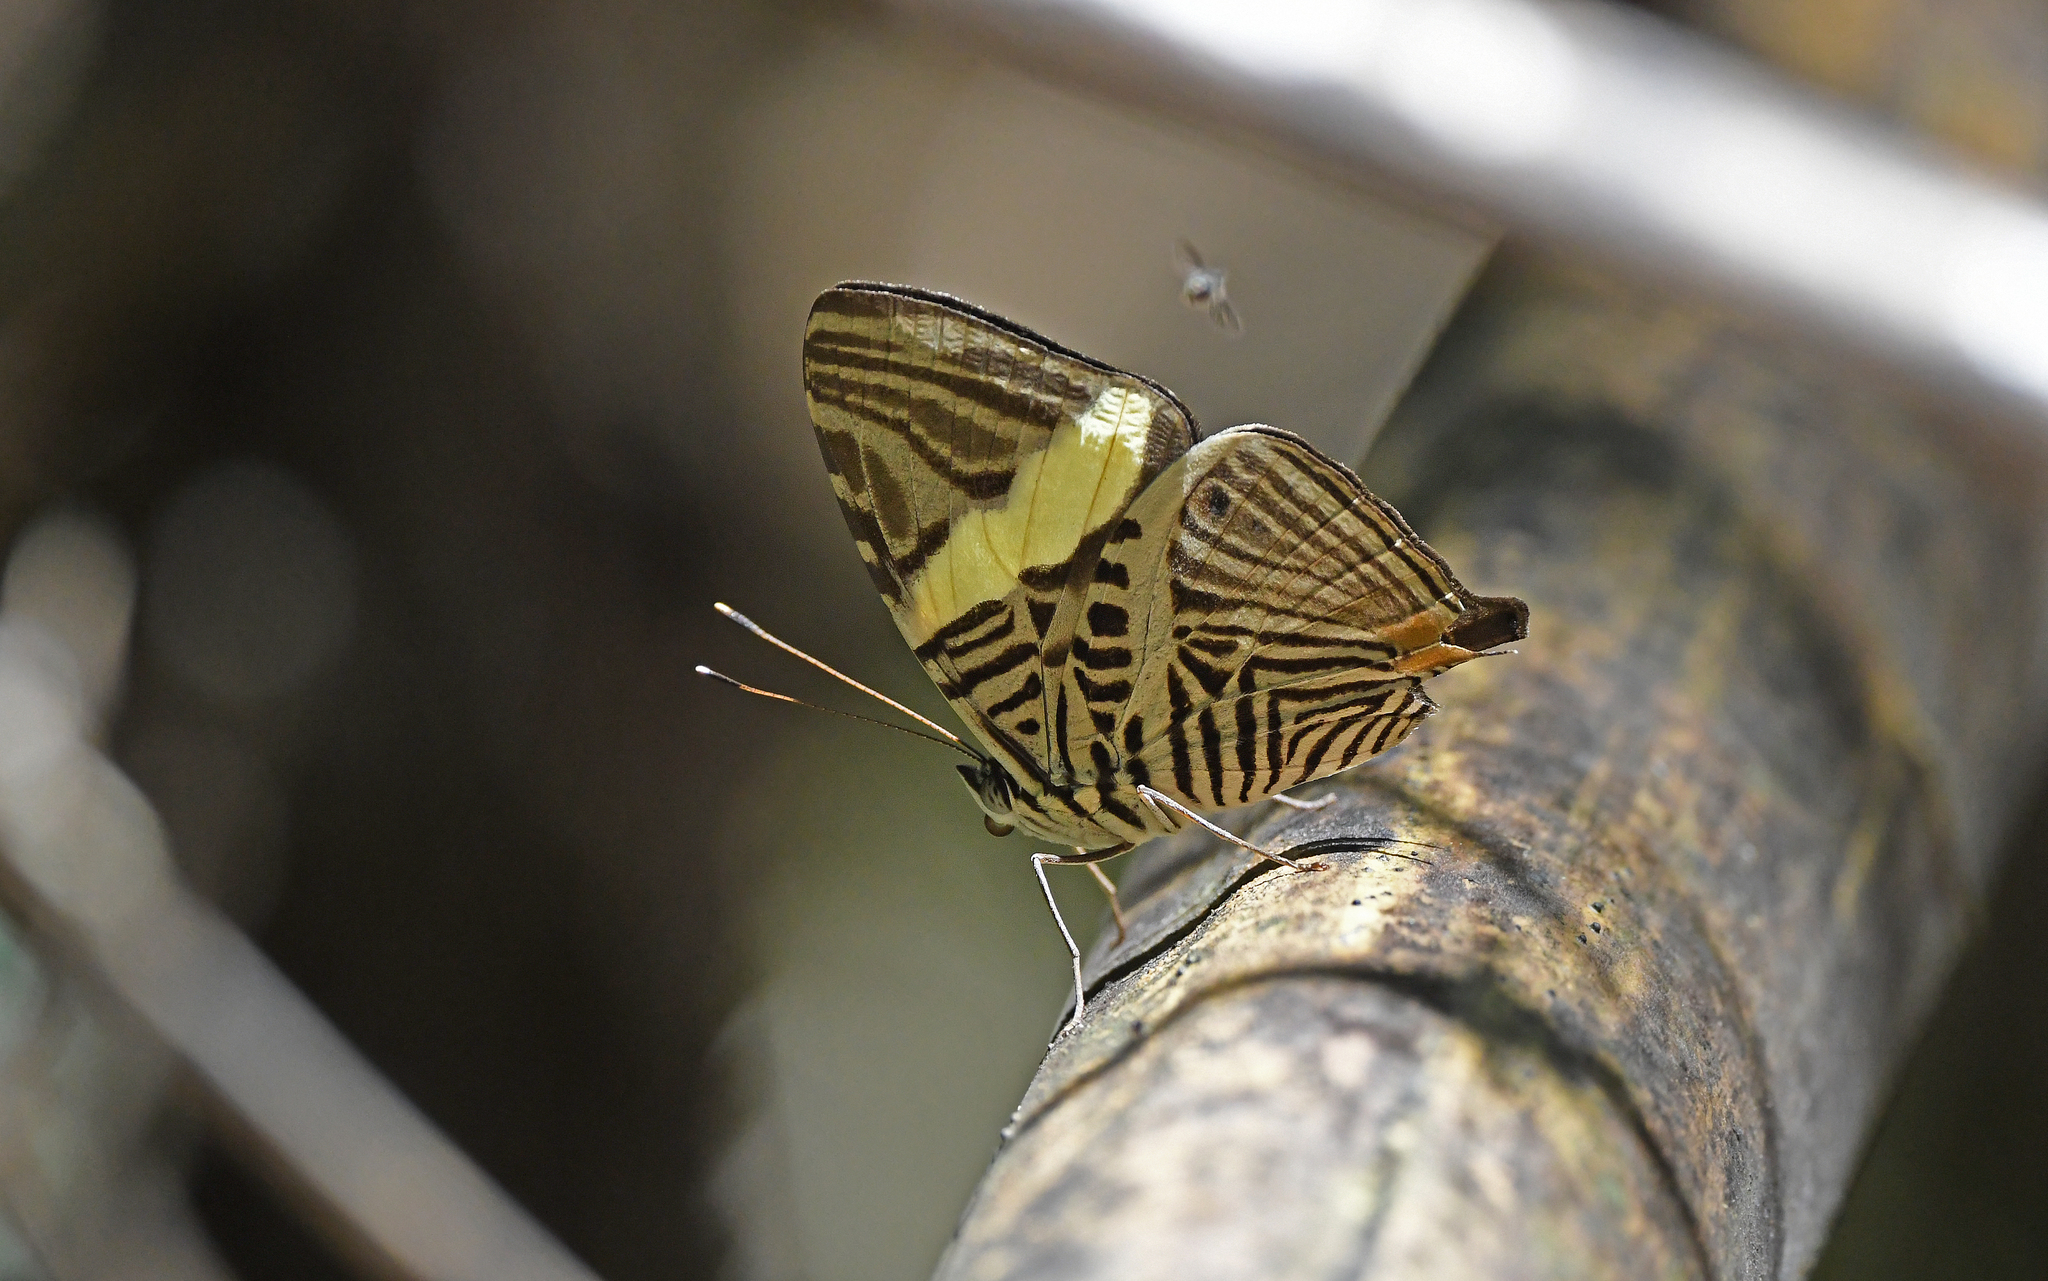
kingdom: Animalia
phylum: Arthropoda
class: Insecta
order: Lepidoptera
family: Nymphalidae
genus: Colobura
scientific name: Colobura dirce
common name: Dirce beauty
